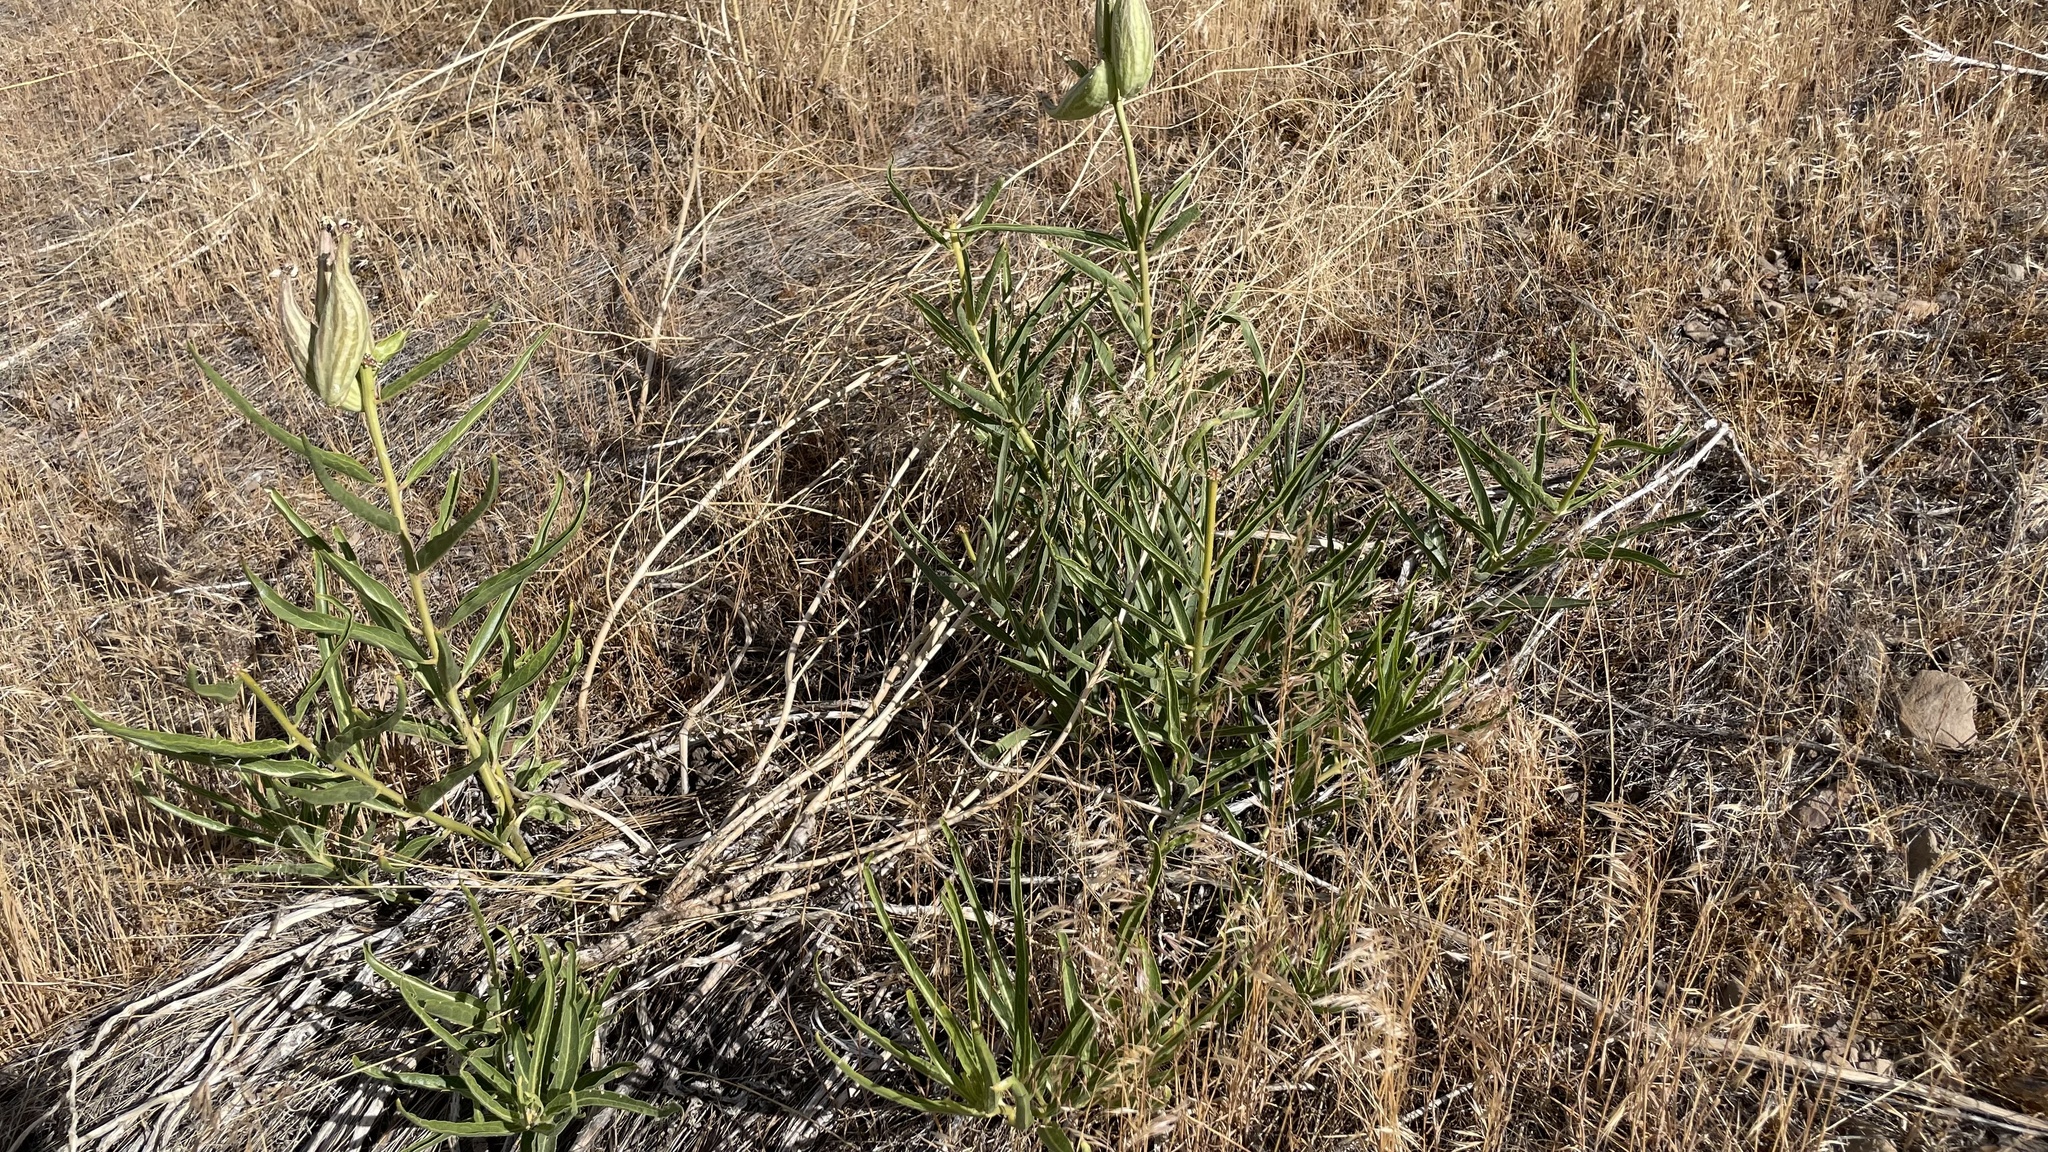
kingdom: Plantae
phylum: Tracheophyta
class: Magnoliopsida
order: Gentianales
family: Apocynaceae
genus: Asclepias
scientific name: Asclepias asperula
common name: Antelope horns
